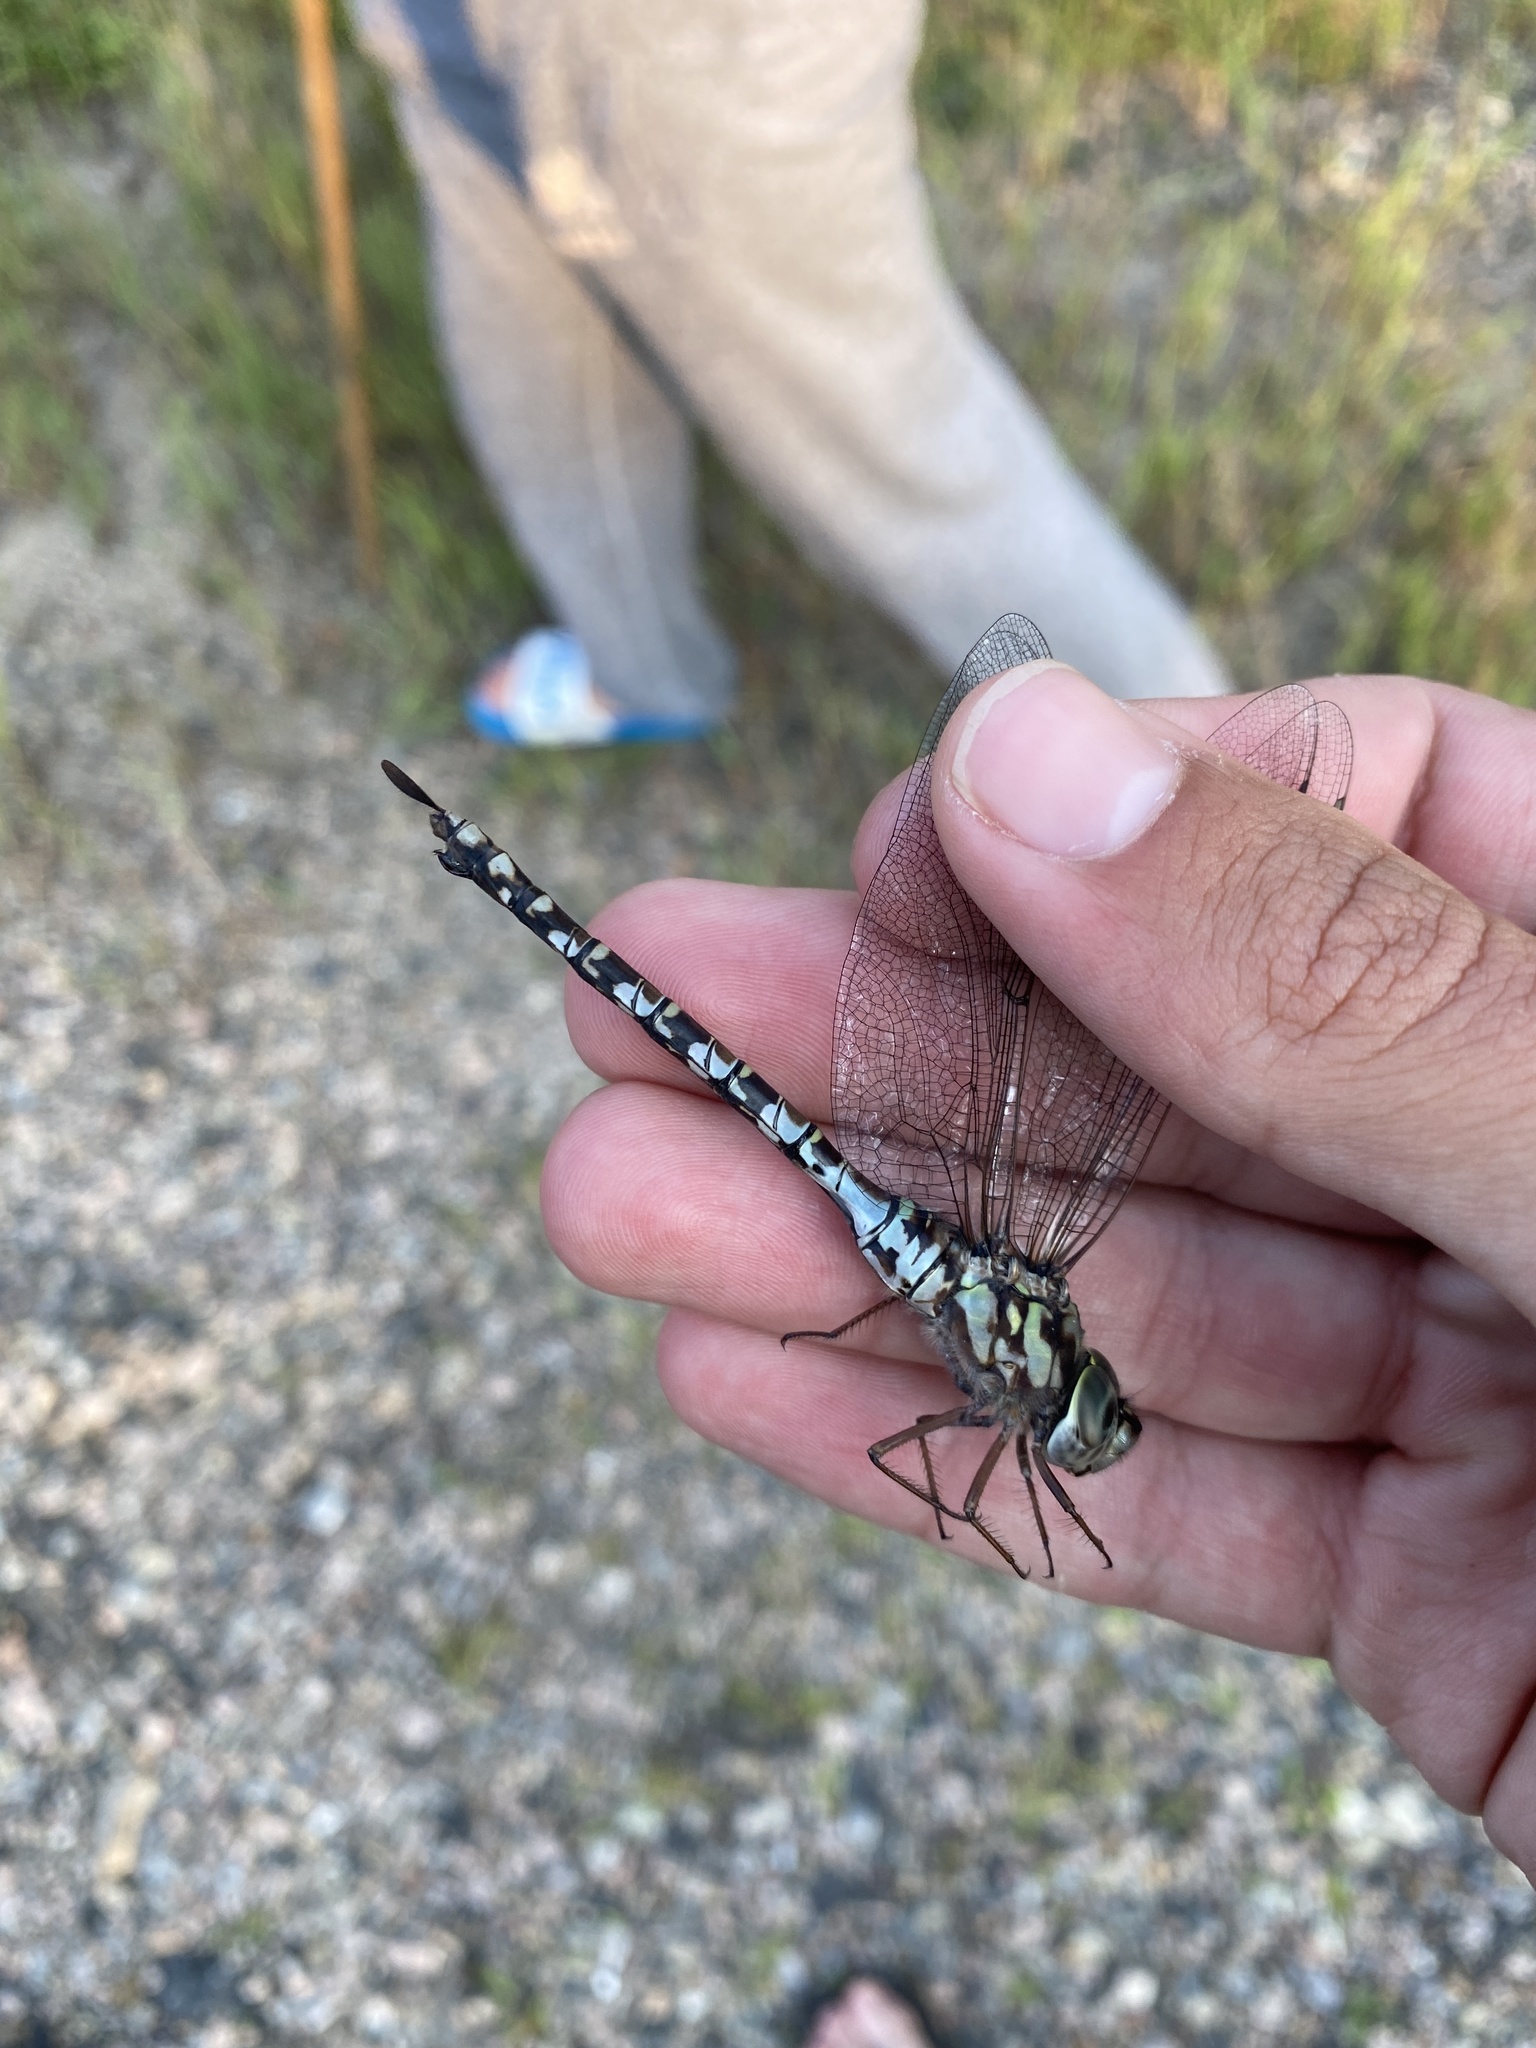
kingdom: Animalia
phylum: Arthropoda
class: Insecta
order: Odonata
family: Aeshnidae
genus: Aeshna
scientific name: Aeshna clepsydra
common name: Mottled darner
